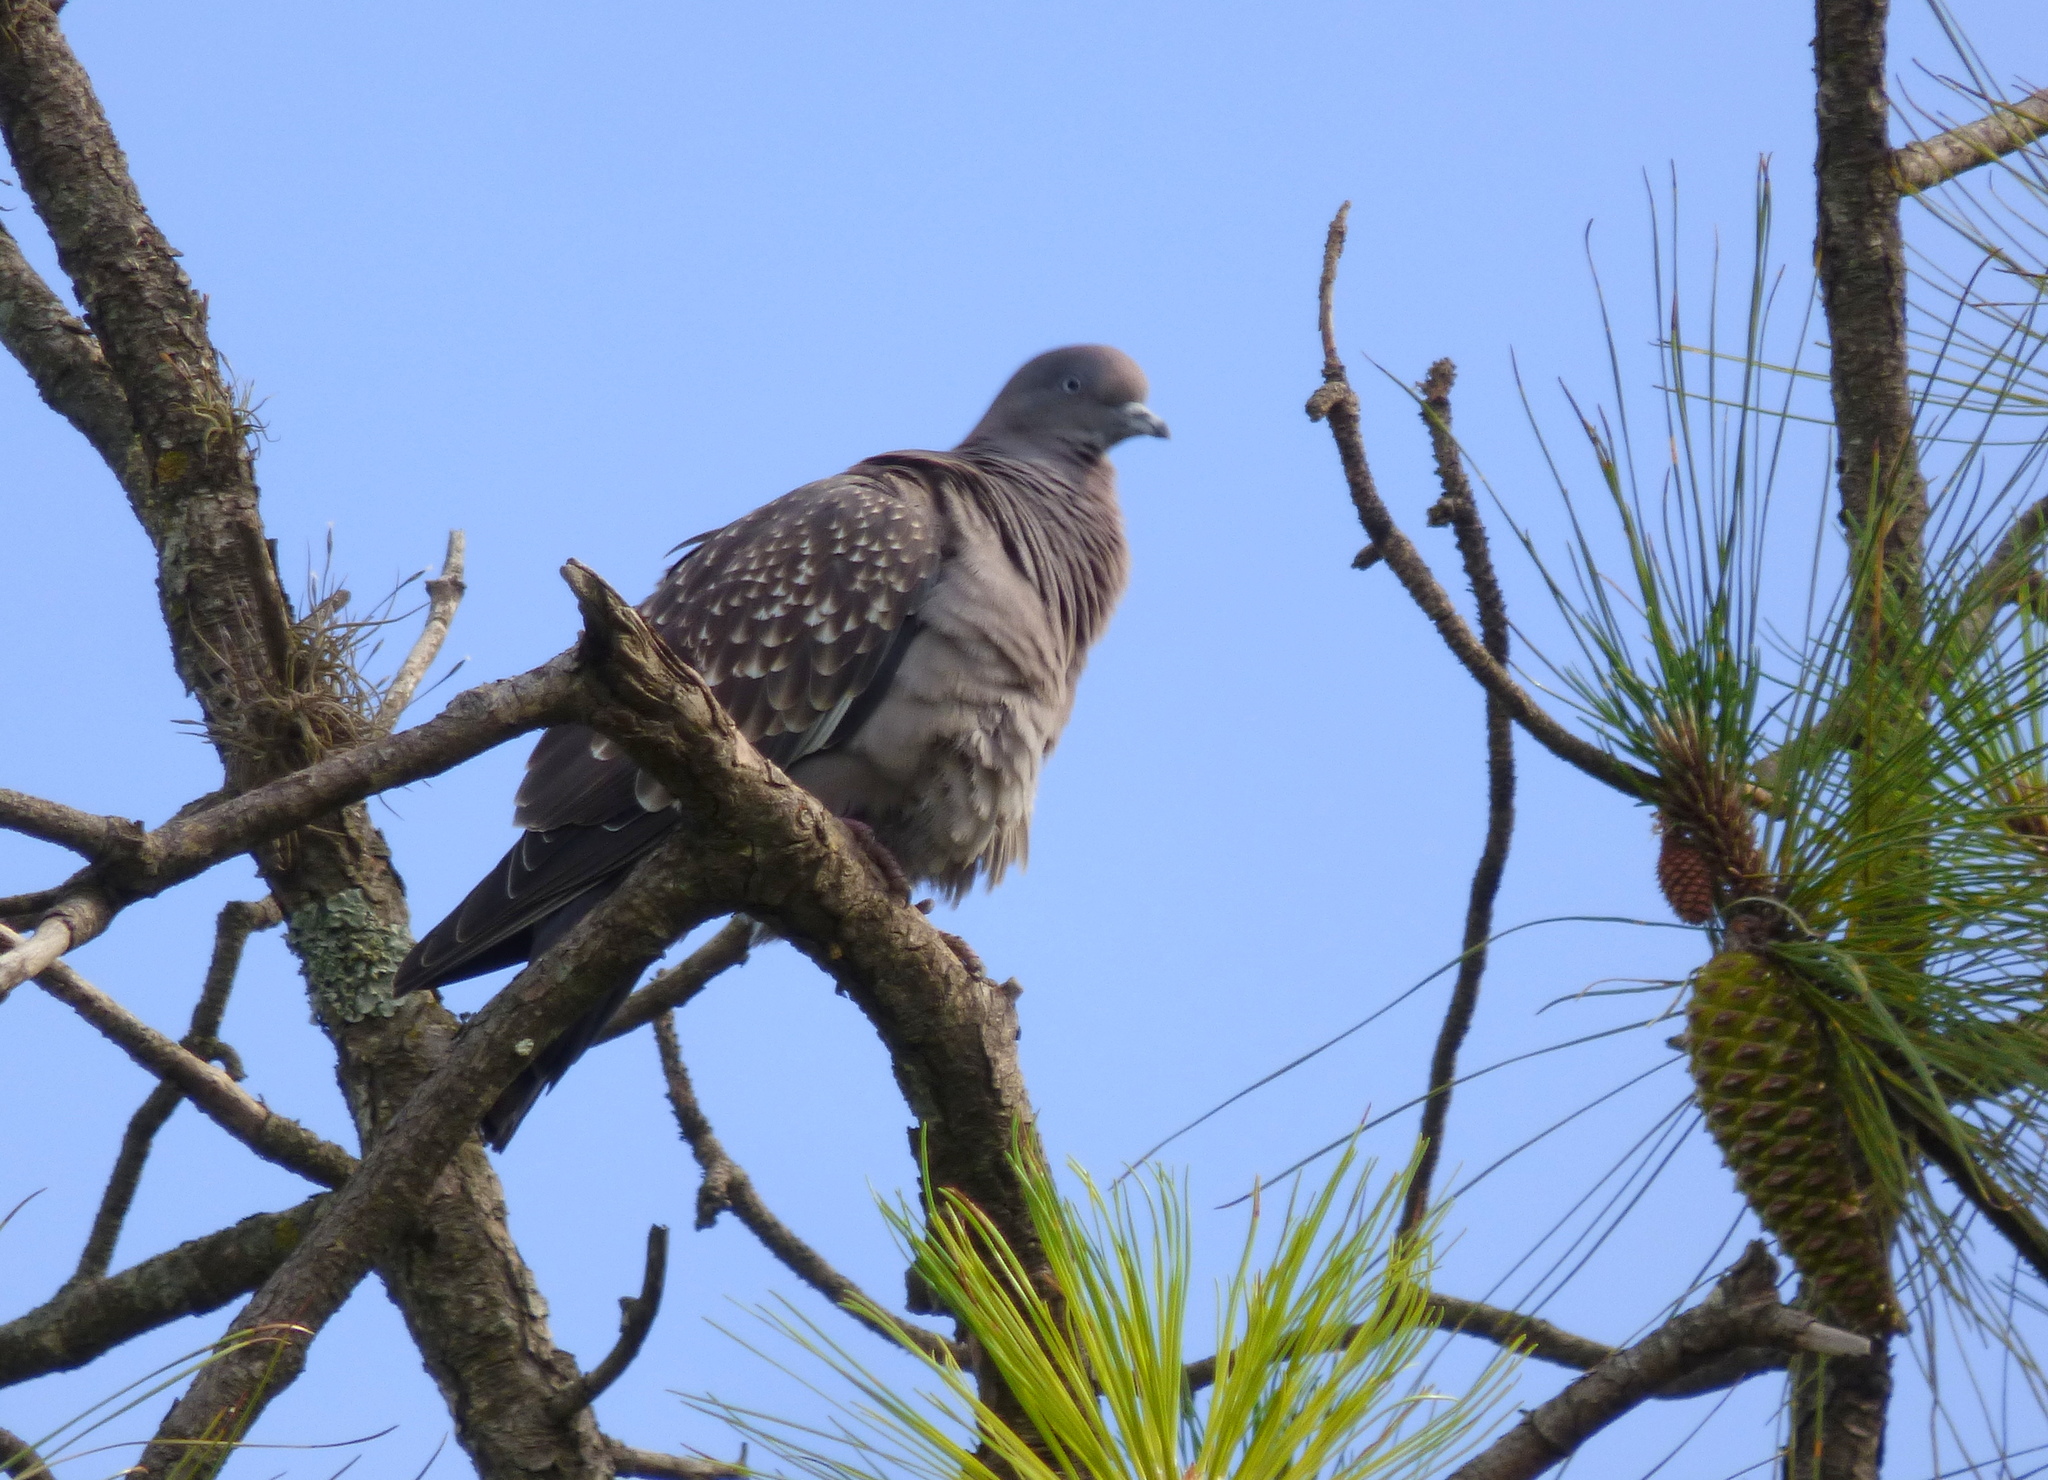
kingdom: Animalia
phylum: Chordata
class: Aves
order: Columbiformes
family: Columbidae
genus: Patagioenas
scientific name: Patagioenas maculosa
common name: Spot-winged pigeon
